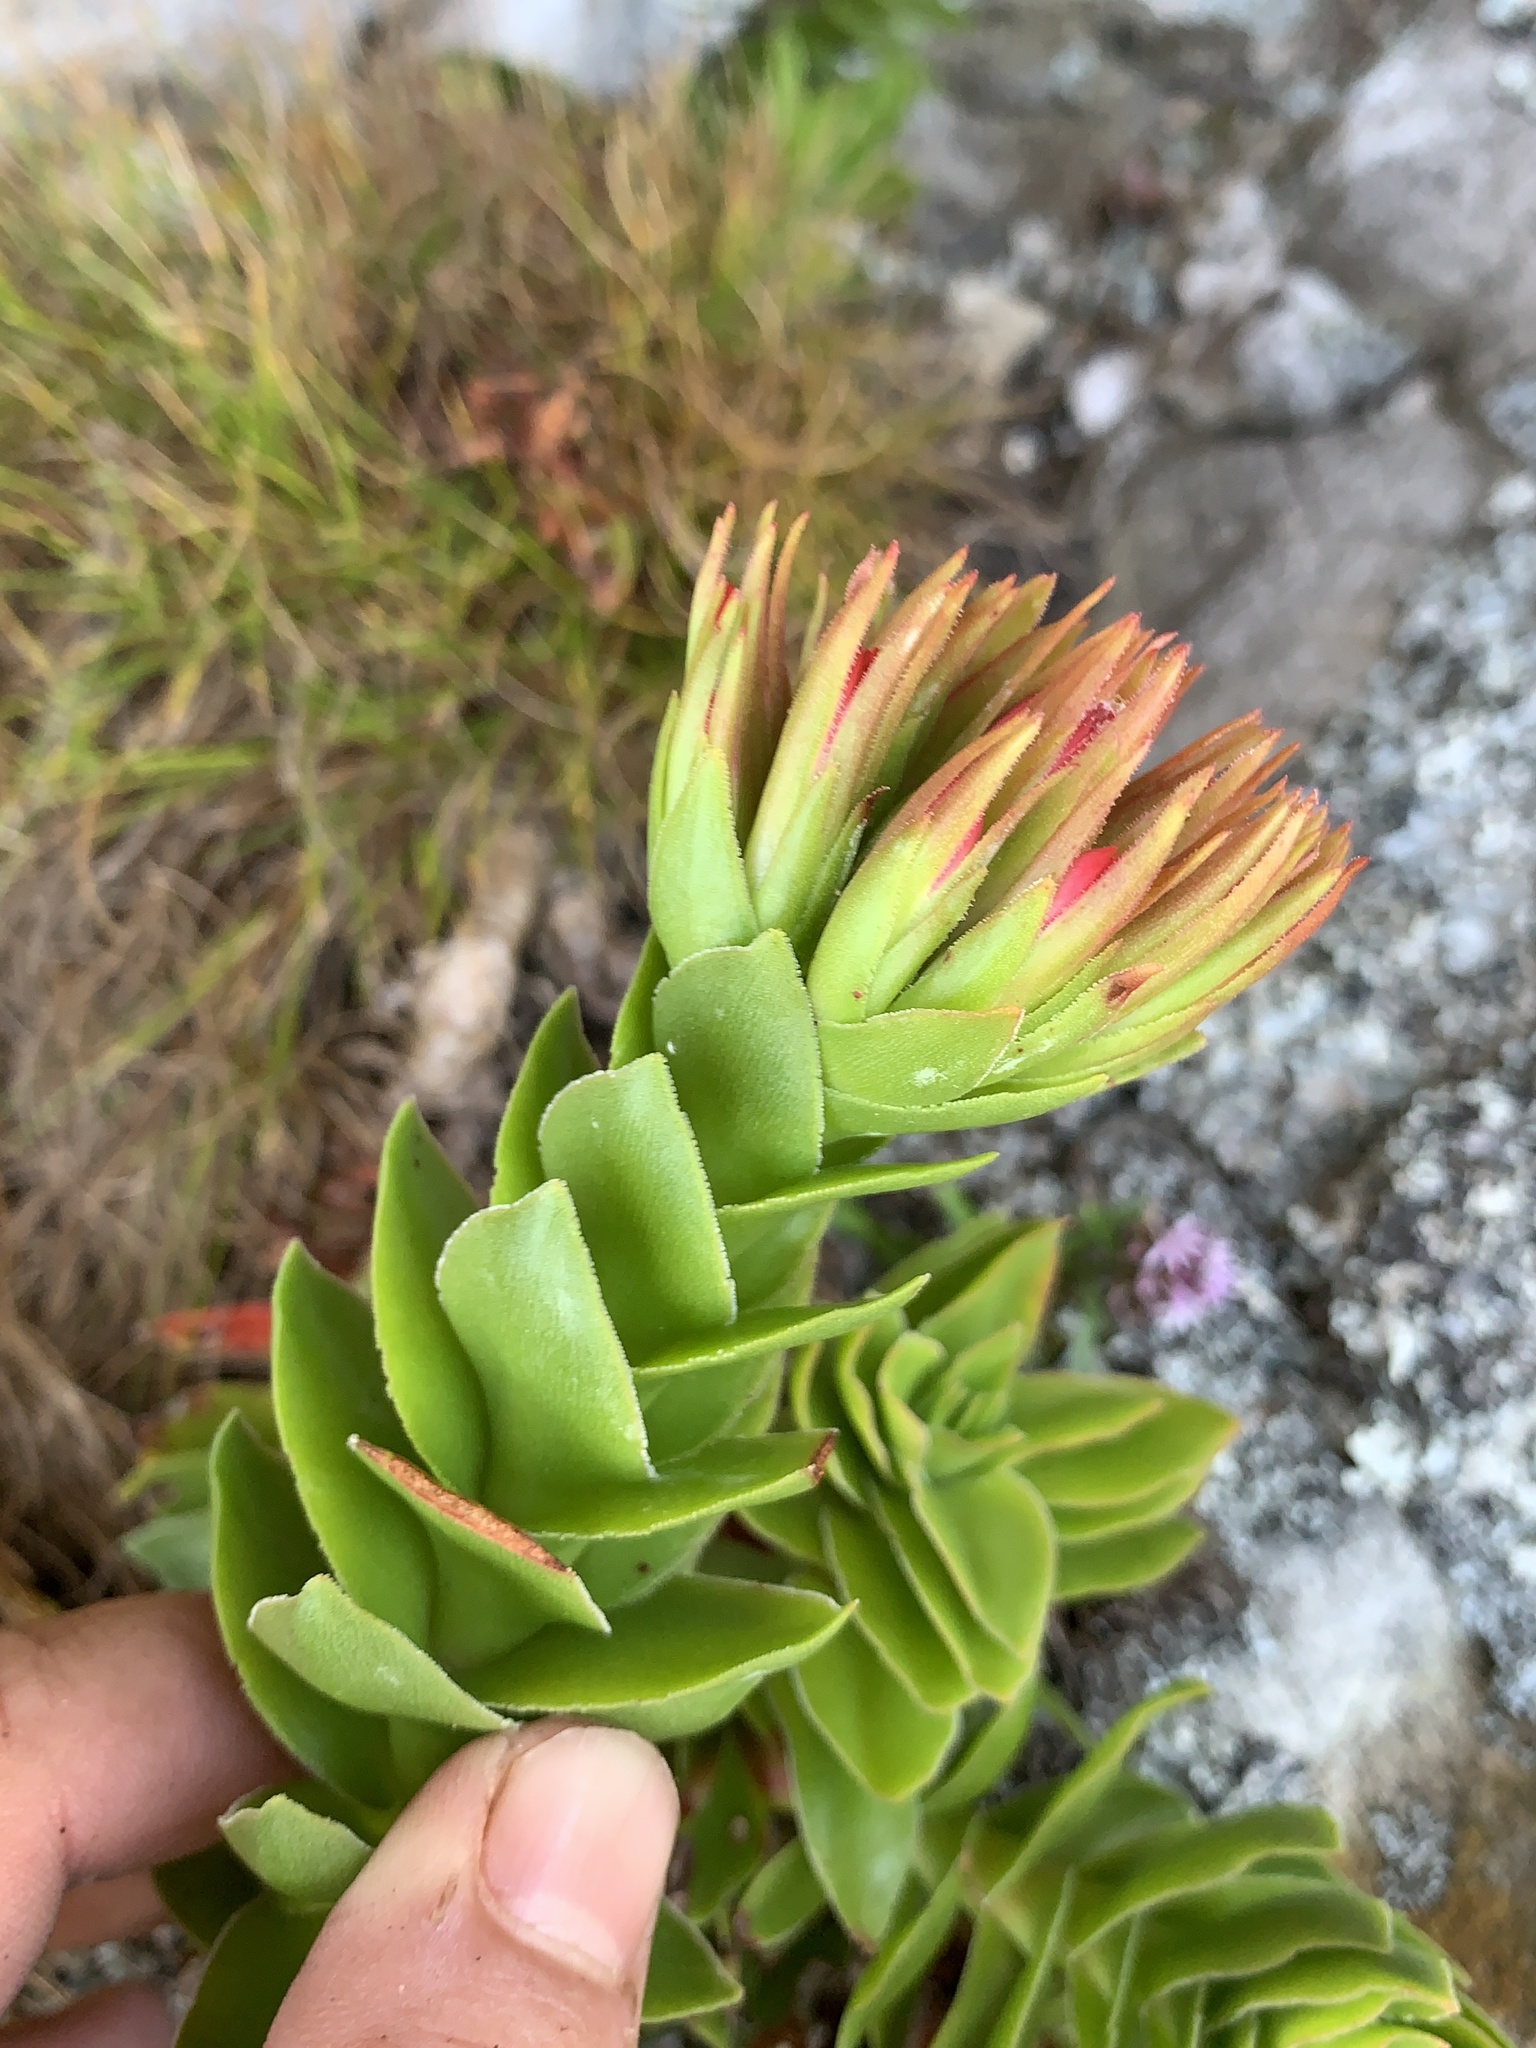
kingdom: Plantae
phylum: Tracheophyta
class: Magnoliopsida
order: Saxifragales
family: Crassulaceae
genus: Crassula
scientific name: Crassula coccinea
